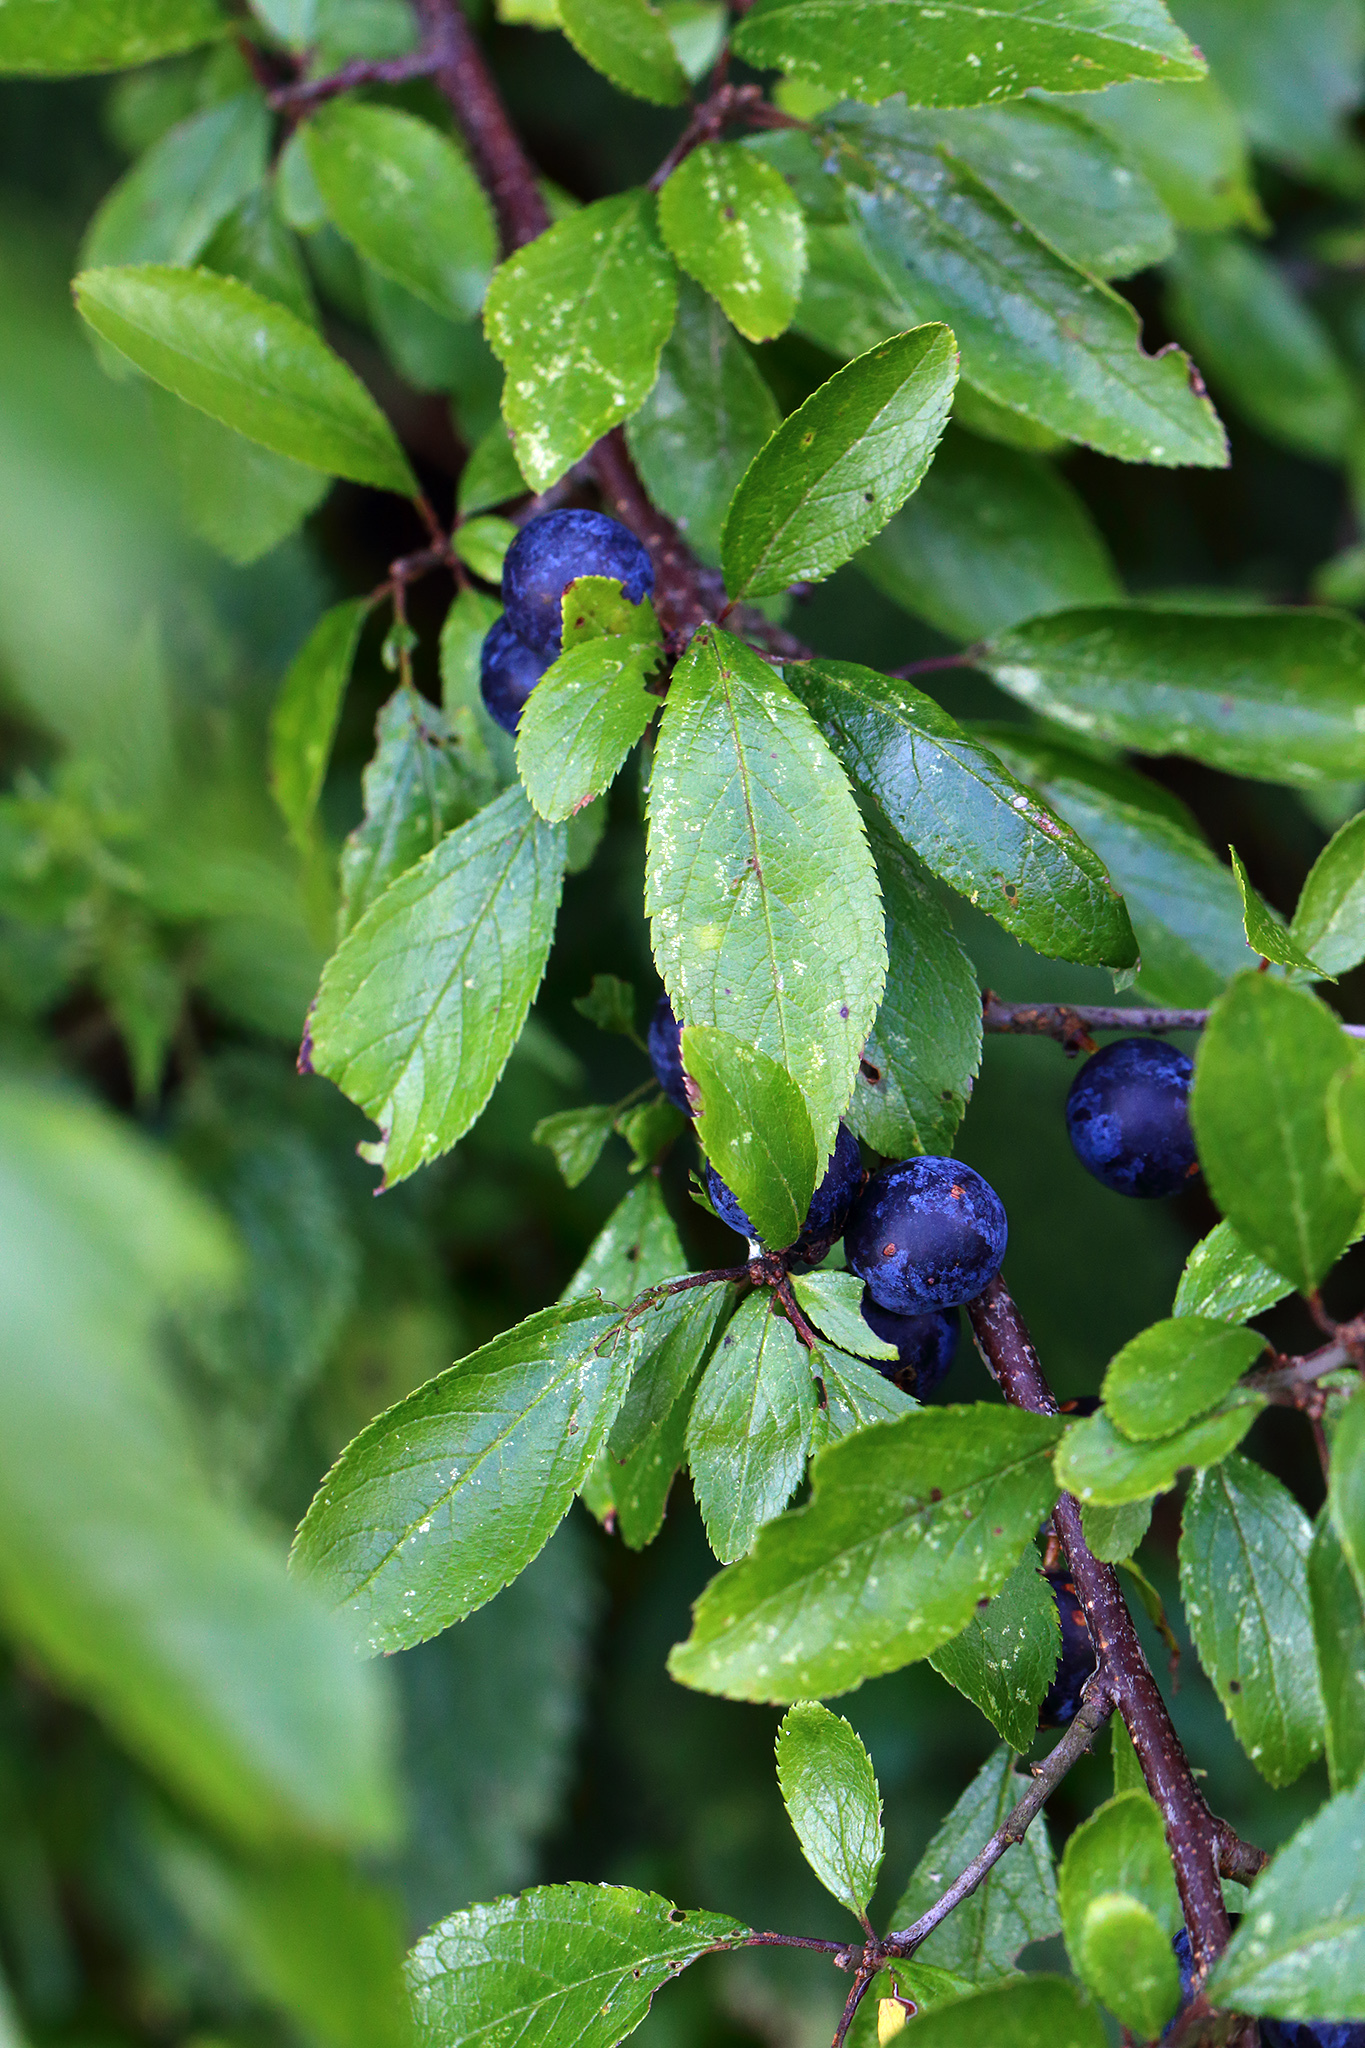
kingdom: Plantae
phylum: Tracheophyta
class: Magnoliopsida
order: Rosales
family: Rosaceae
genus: Prunus
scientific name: Prunus spinosa
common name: Blackthorn
